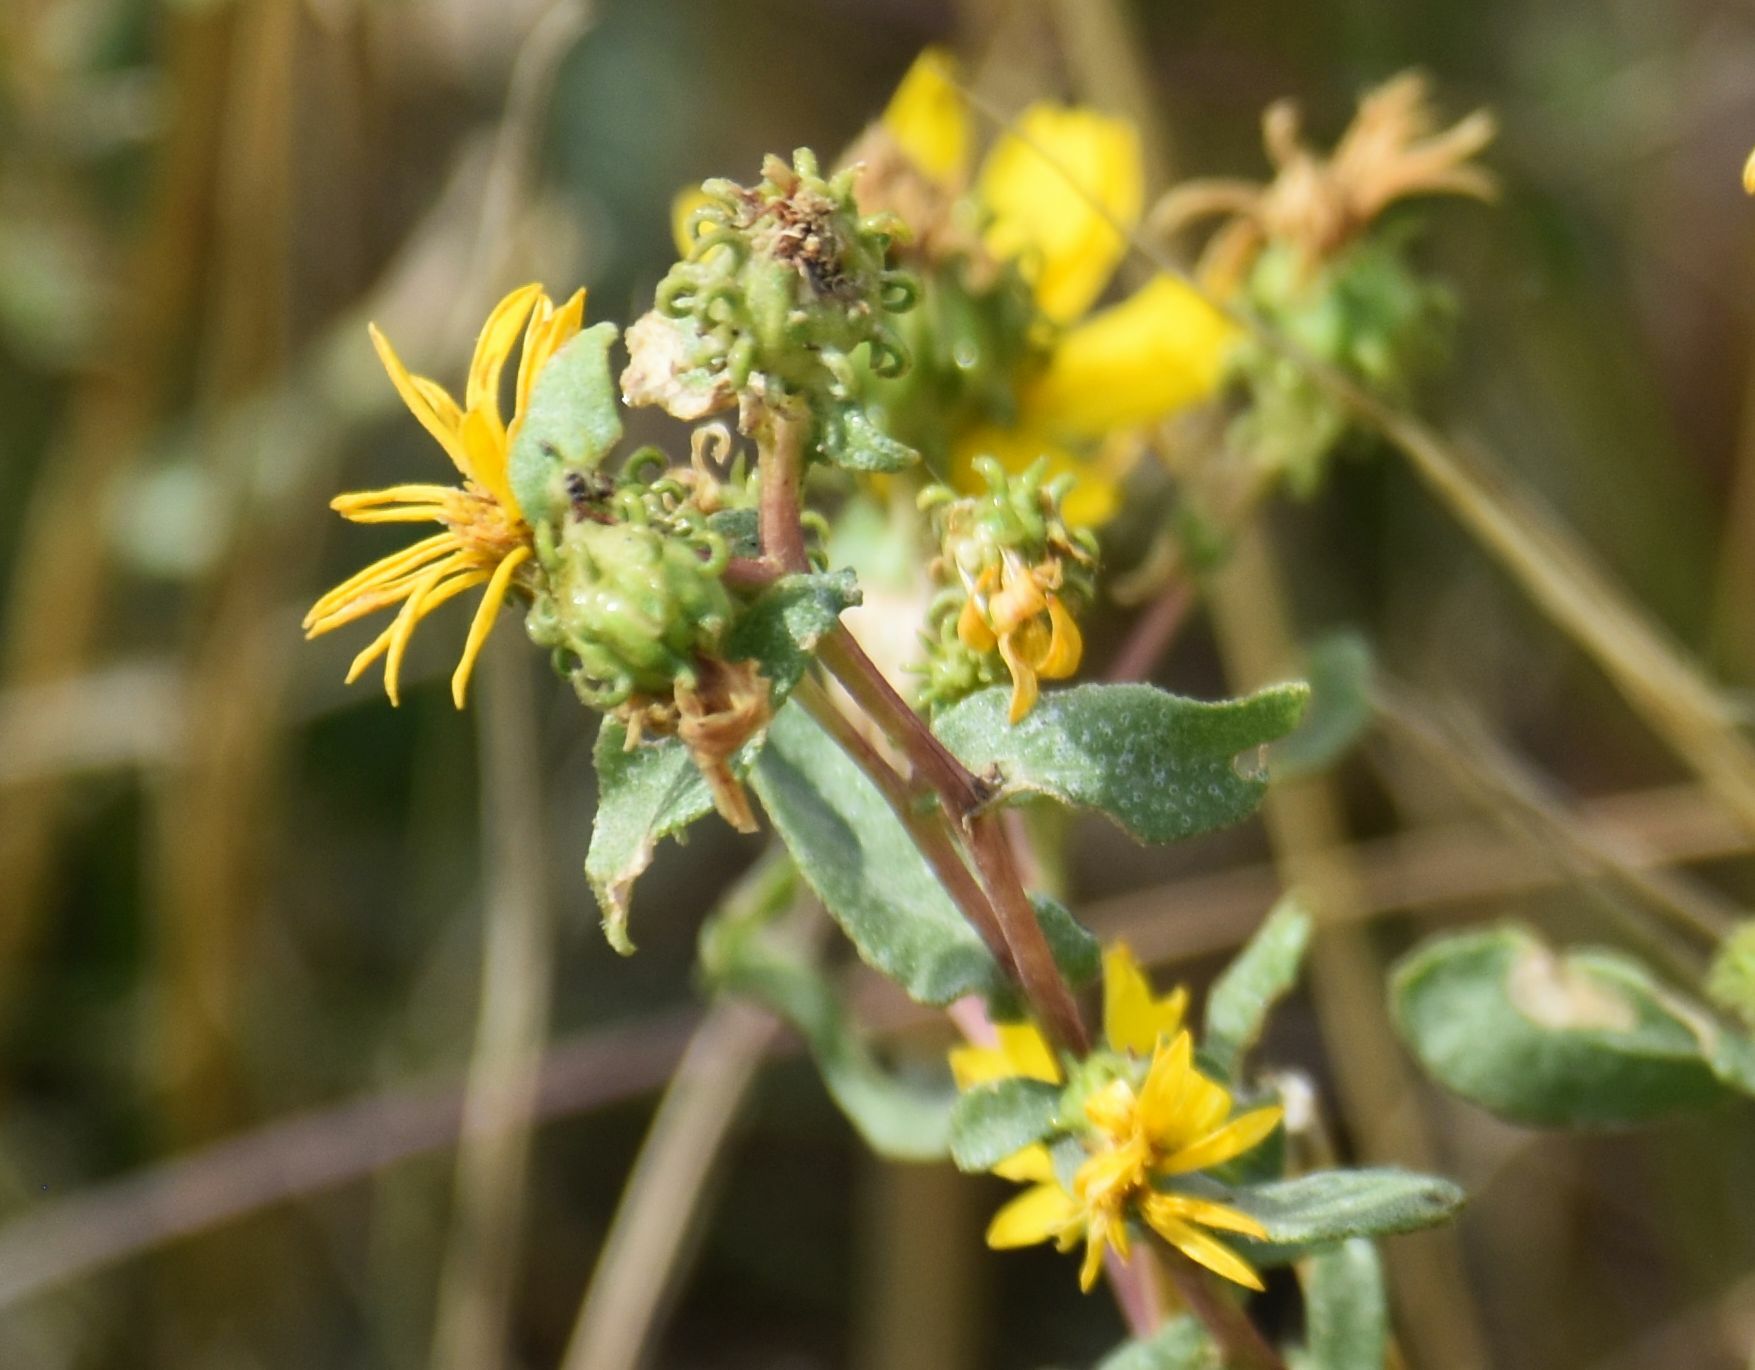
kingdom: Plantae
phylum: Tracheophyta
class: Magnoliopsida
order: Asterales
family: Asteraceae
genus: Grindelia
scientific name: Grindelia squarrosa
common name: Curly-cup gumweed
